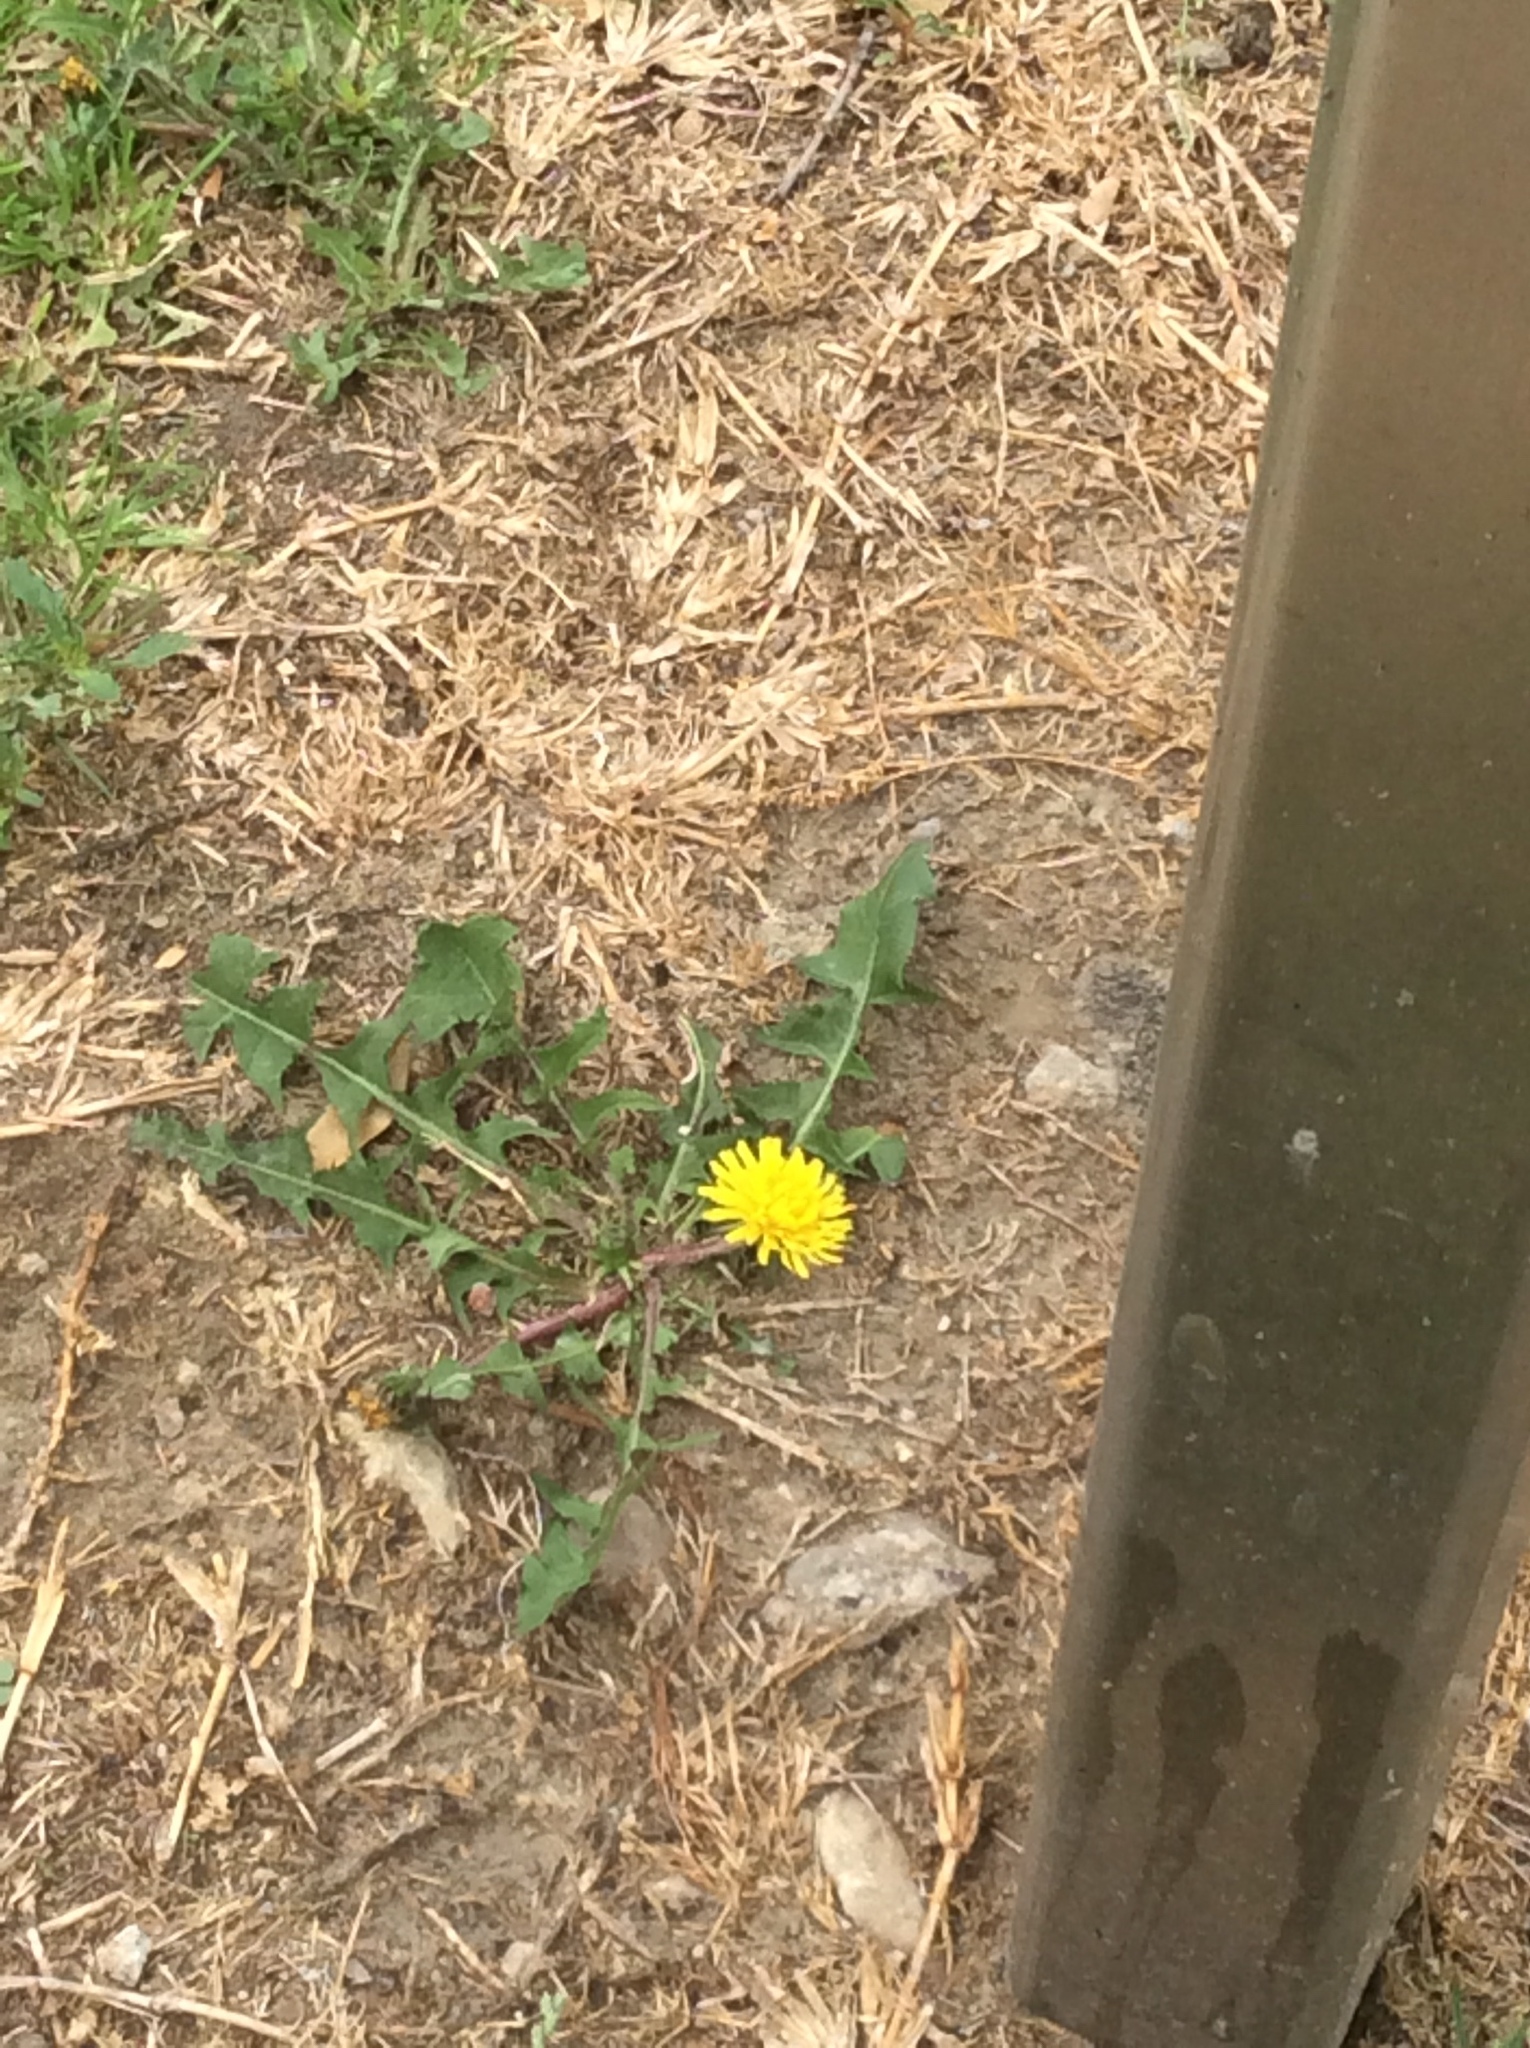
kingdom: Plantae
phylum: Tracheophyta
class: Magnoliopsida
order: Asterales
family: Asteraceae
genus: Taraxacum
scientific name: Taraxacum officinale
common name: Common dandelion
